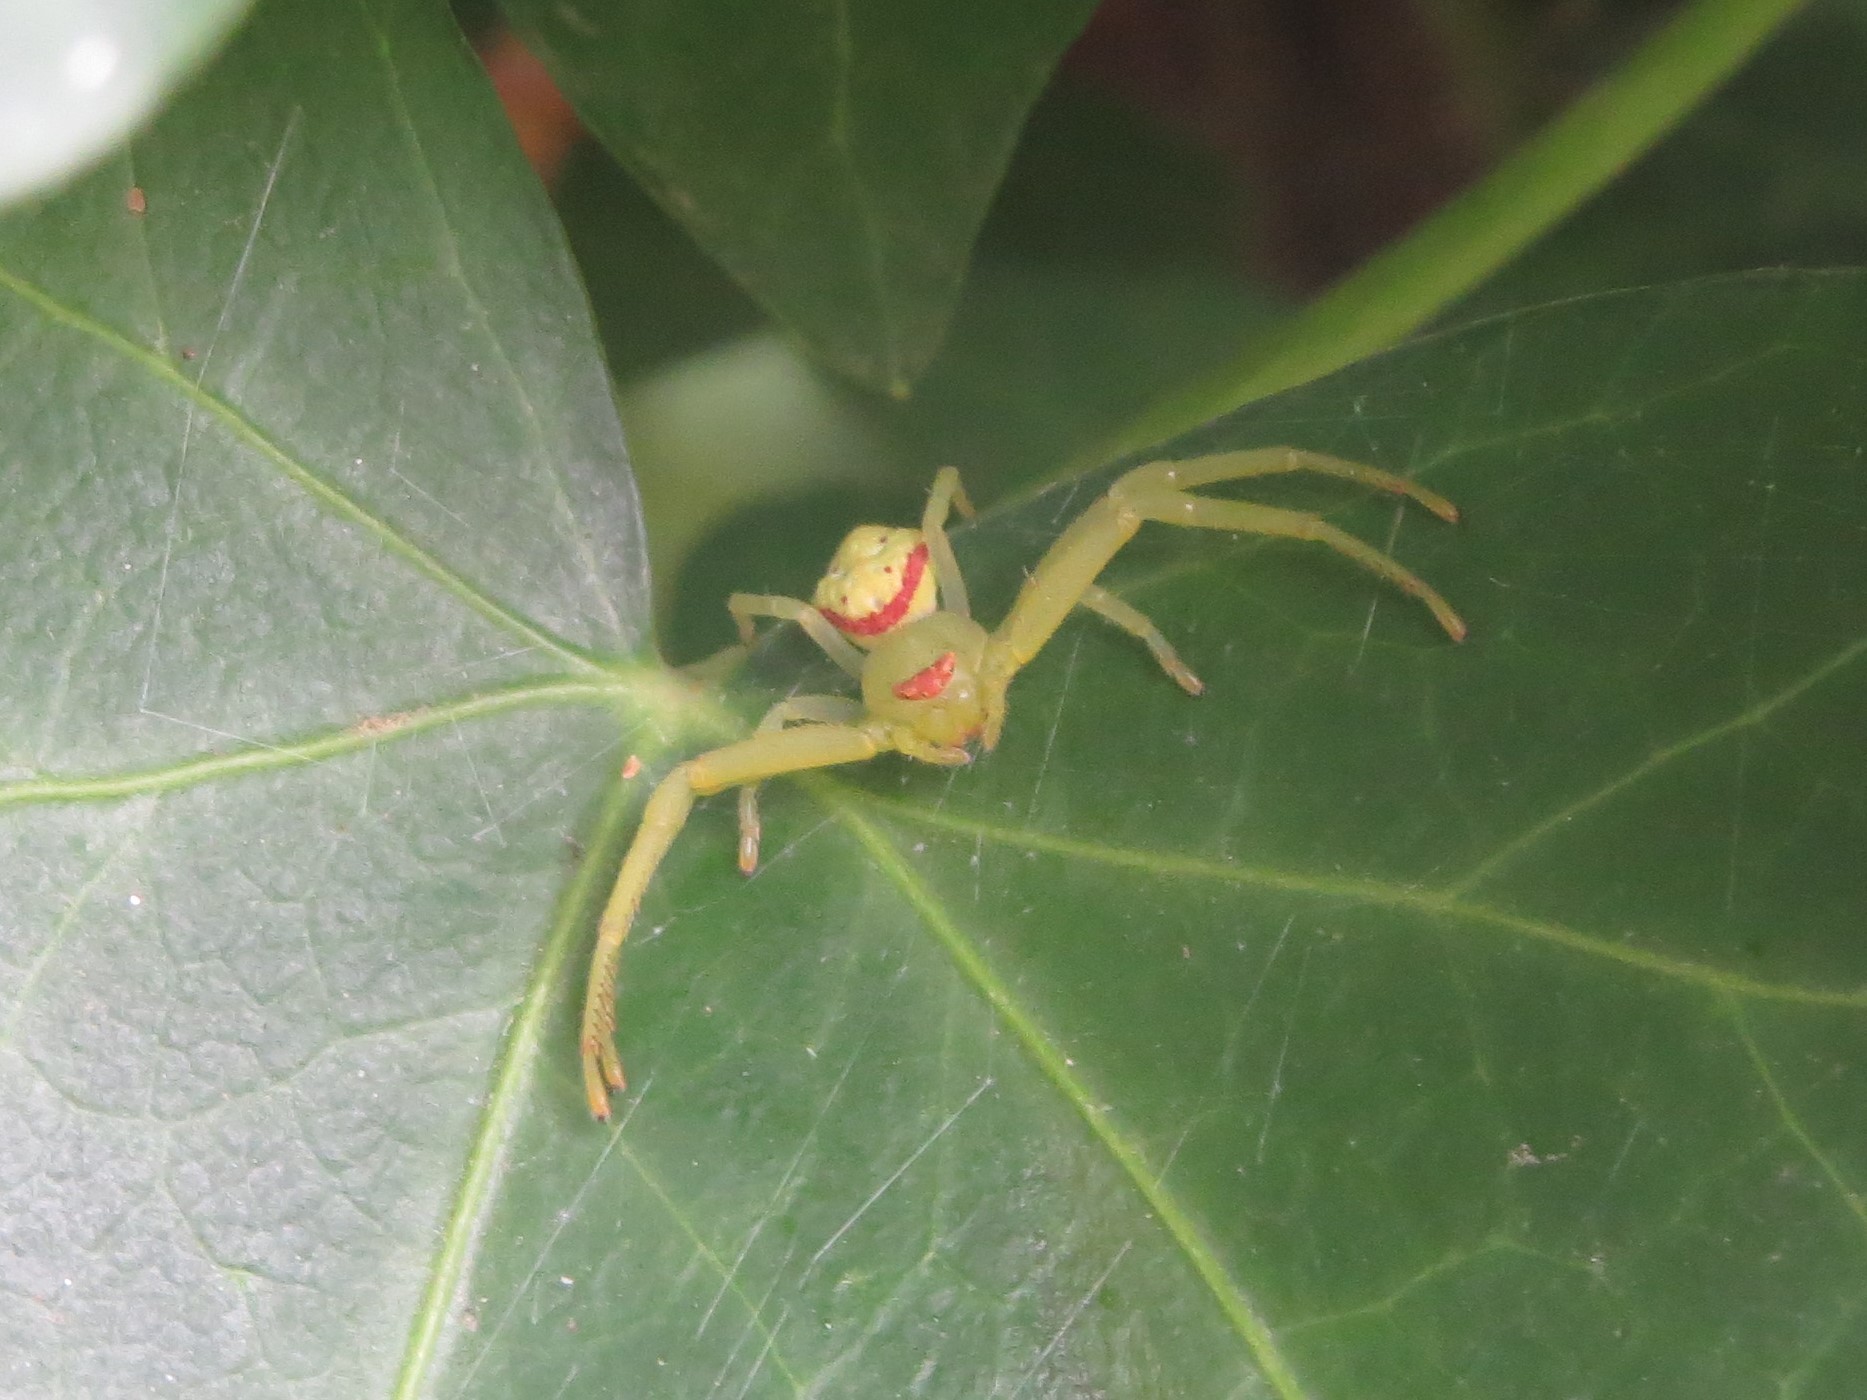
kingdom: Animalia
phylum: Arthropoda
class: Arachnida
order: Araneae
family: Thomisidae
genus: Misumenops
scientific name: Misumenops callinurus
